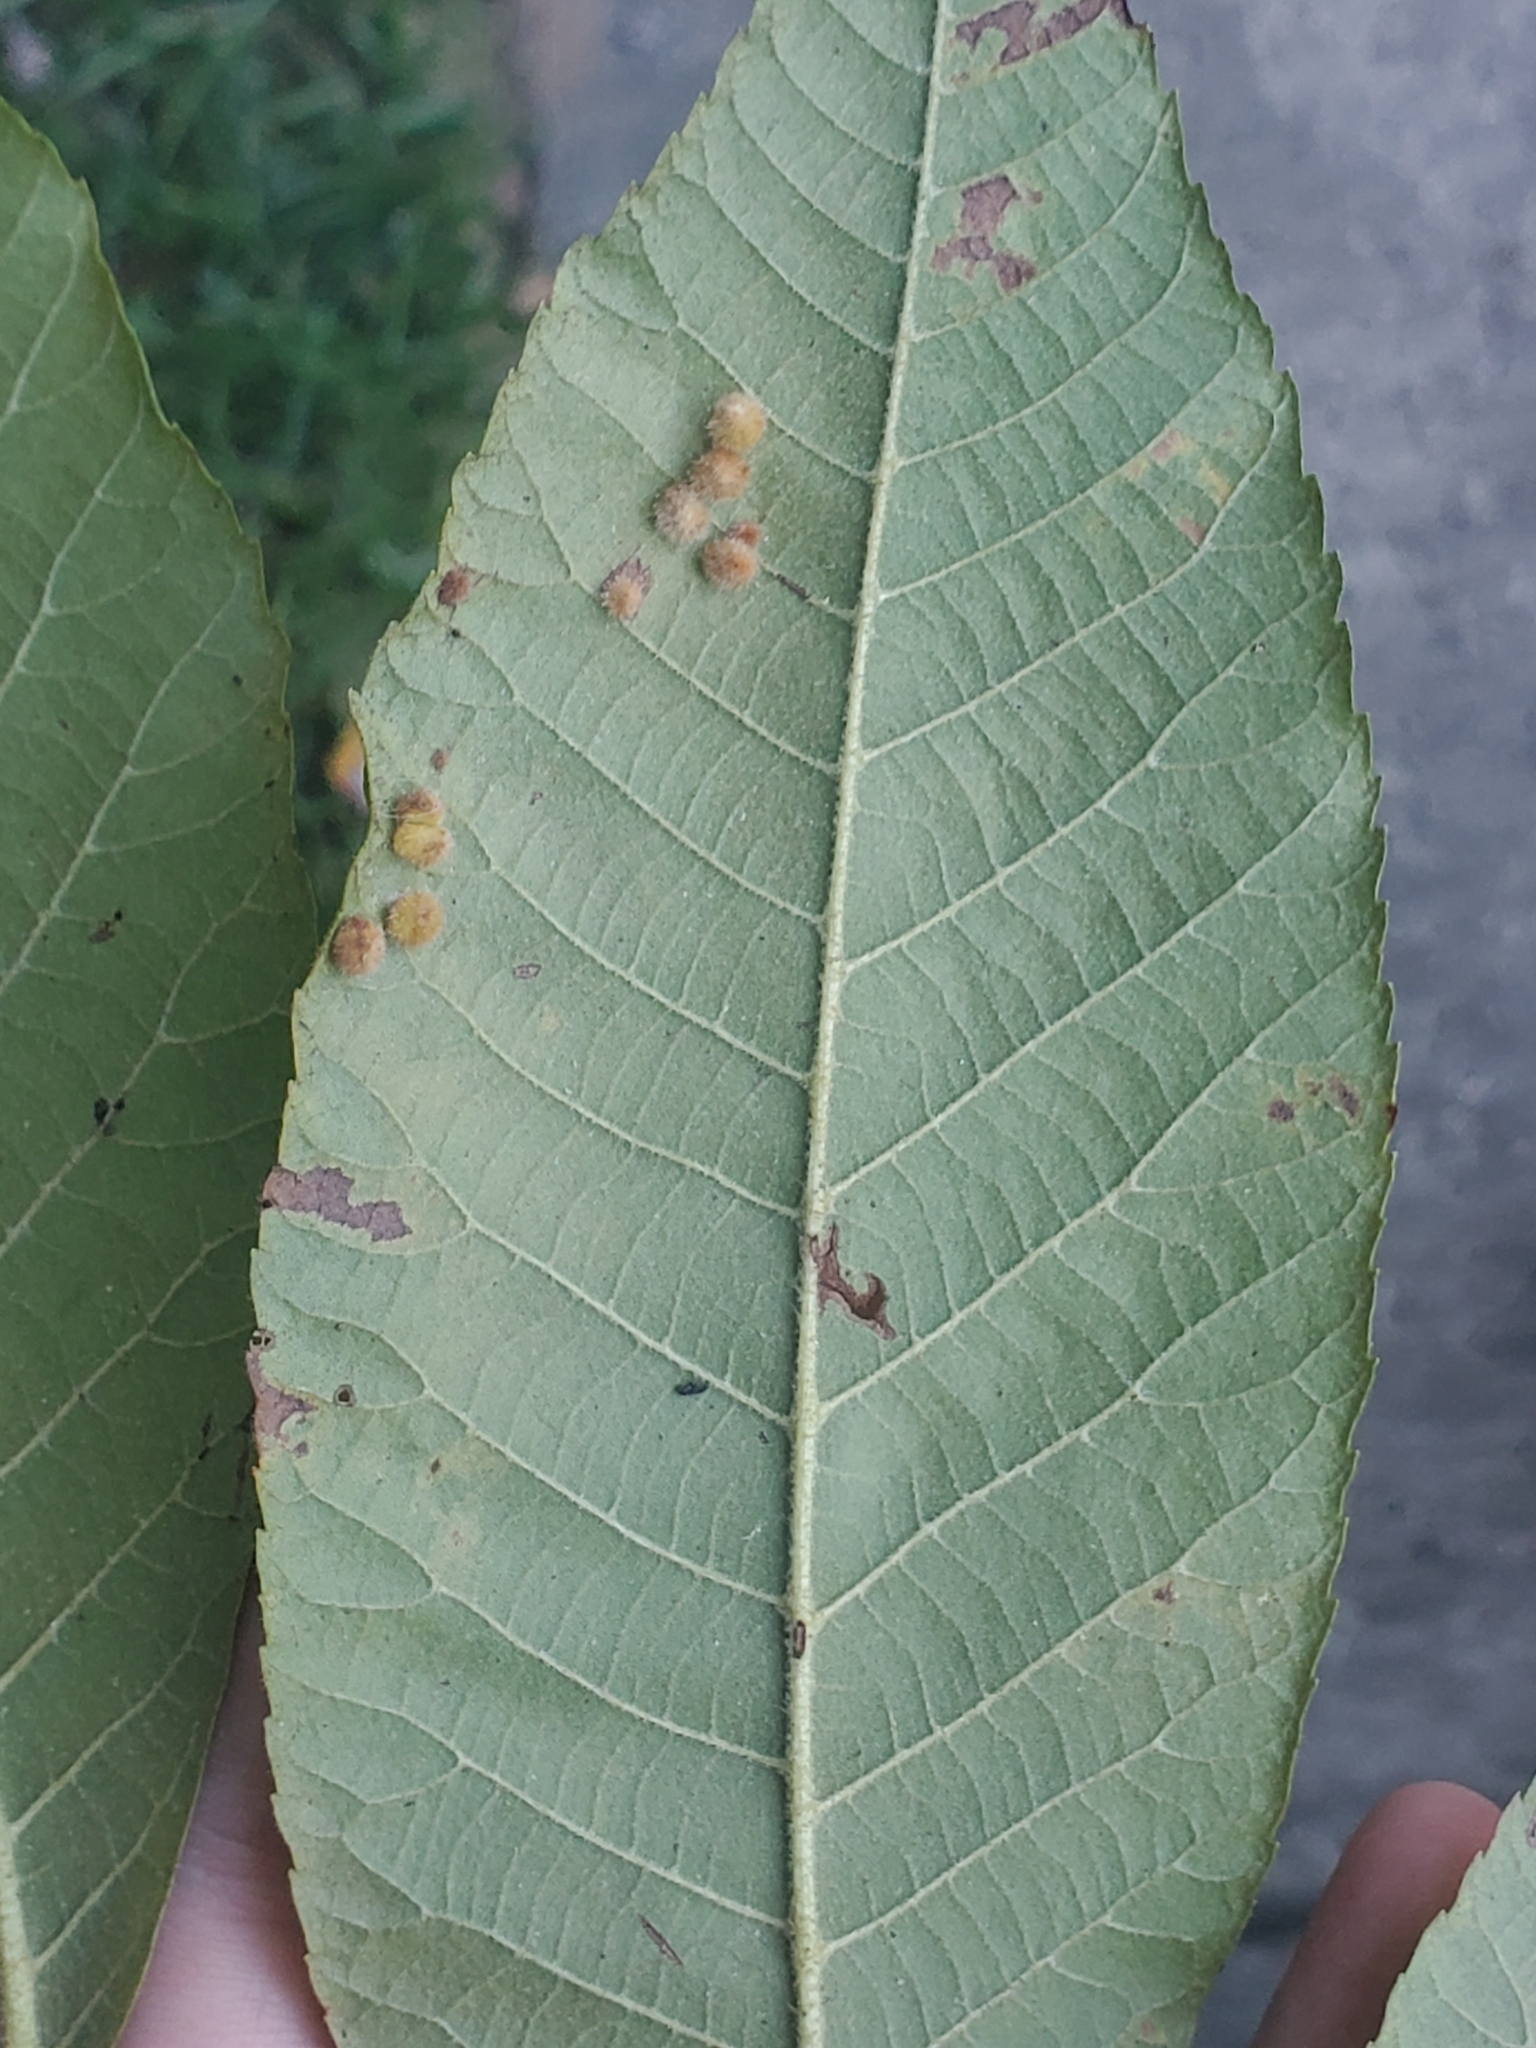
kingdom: Animalia
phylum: Arthropoda
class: Insecta
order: Diptera
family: Cecidomyiidae
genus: Caryomyia
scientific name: Caryomyia
